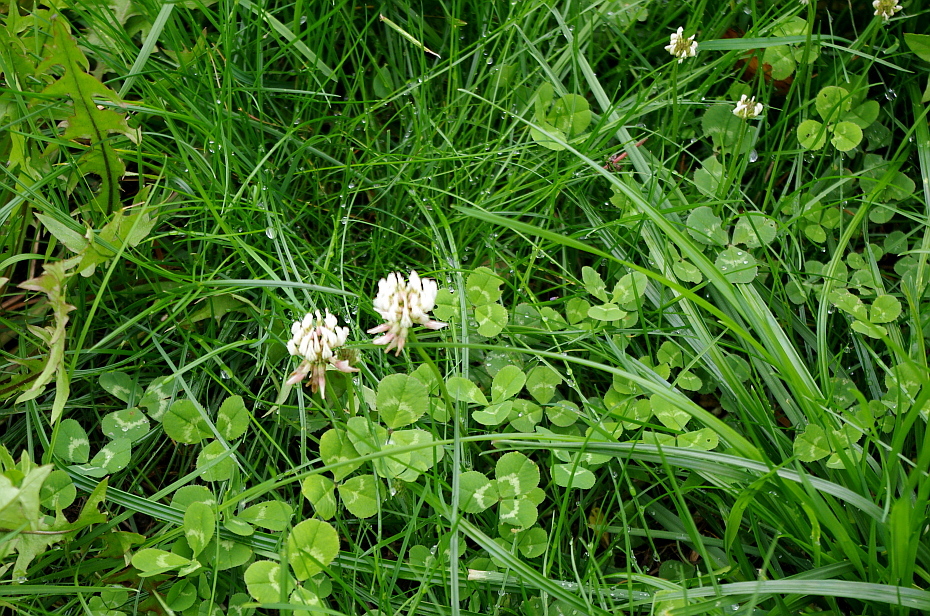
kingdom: Plantae
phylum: Tracheophyta
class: Magnoliopsida
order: Fabales
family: Fabaceae
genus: Trifolium
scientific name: Trifolium repens
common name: White clover
